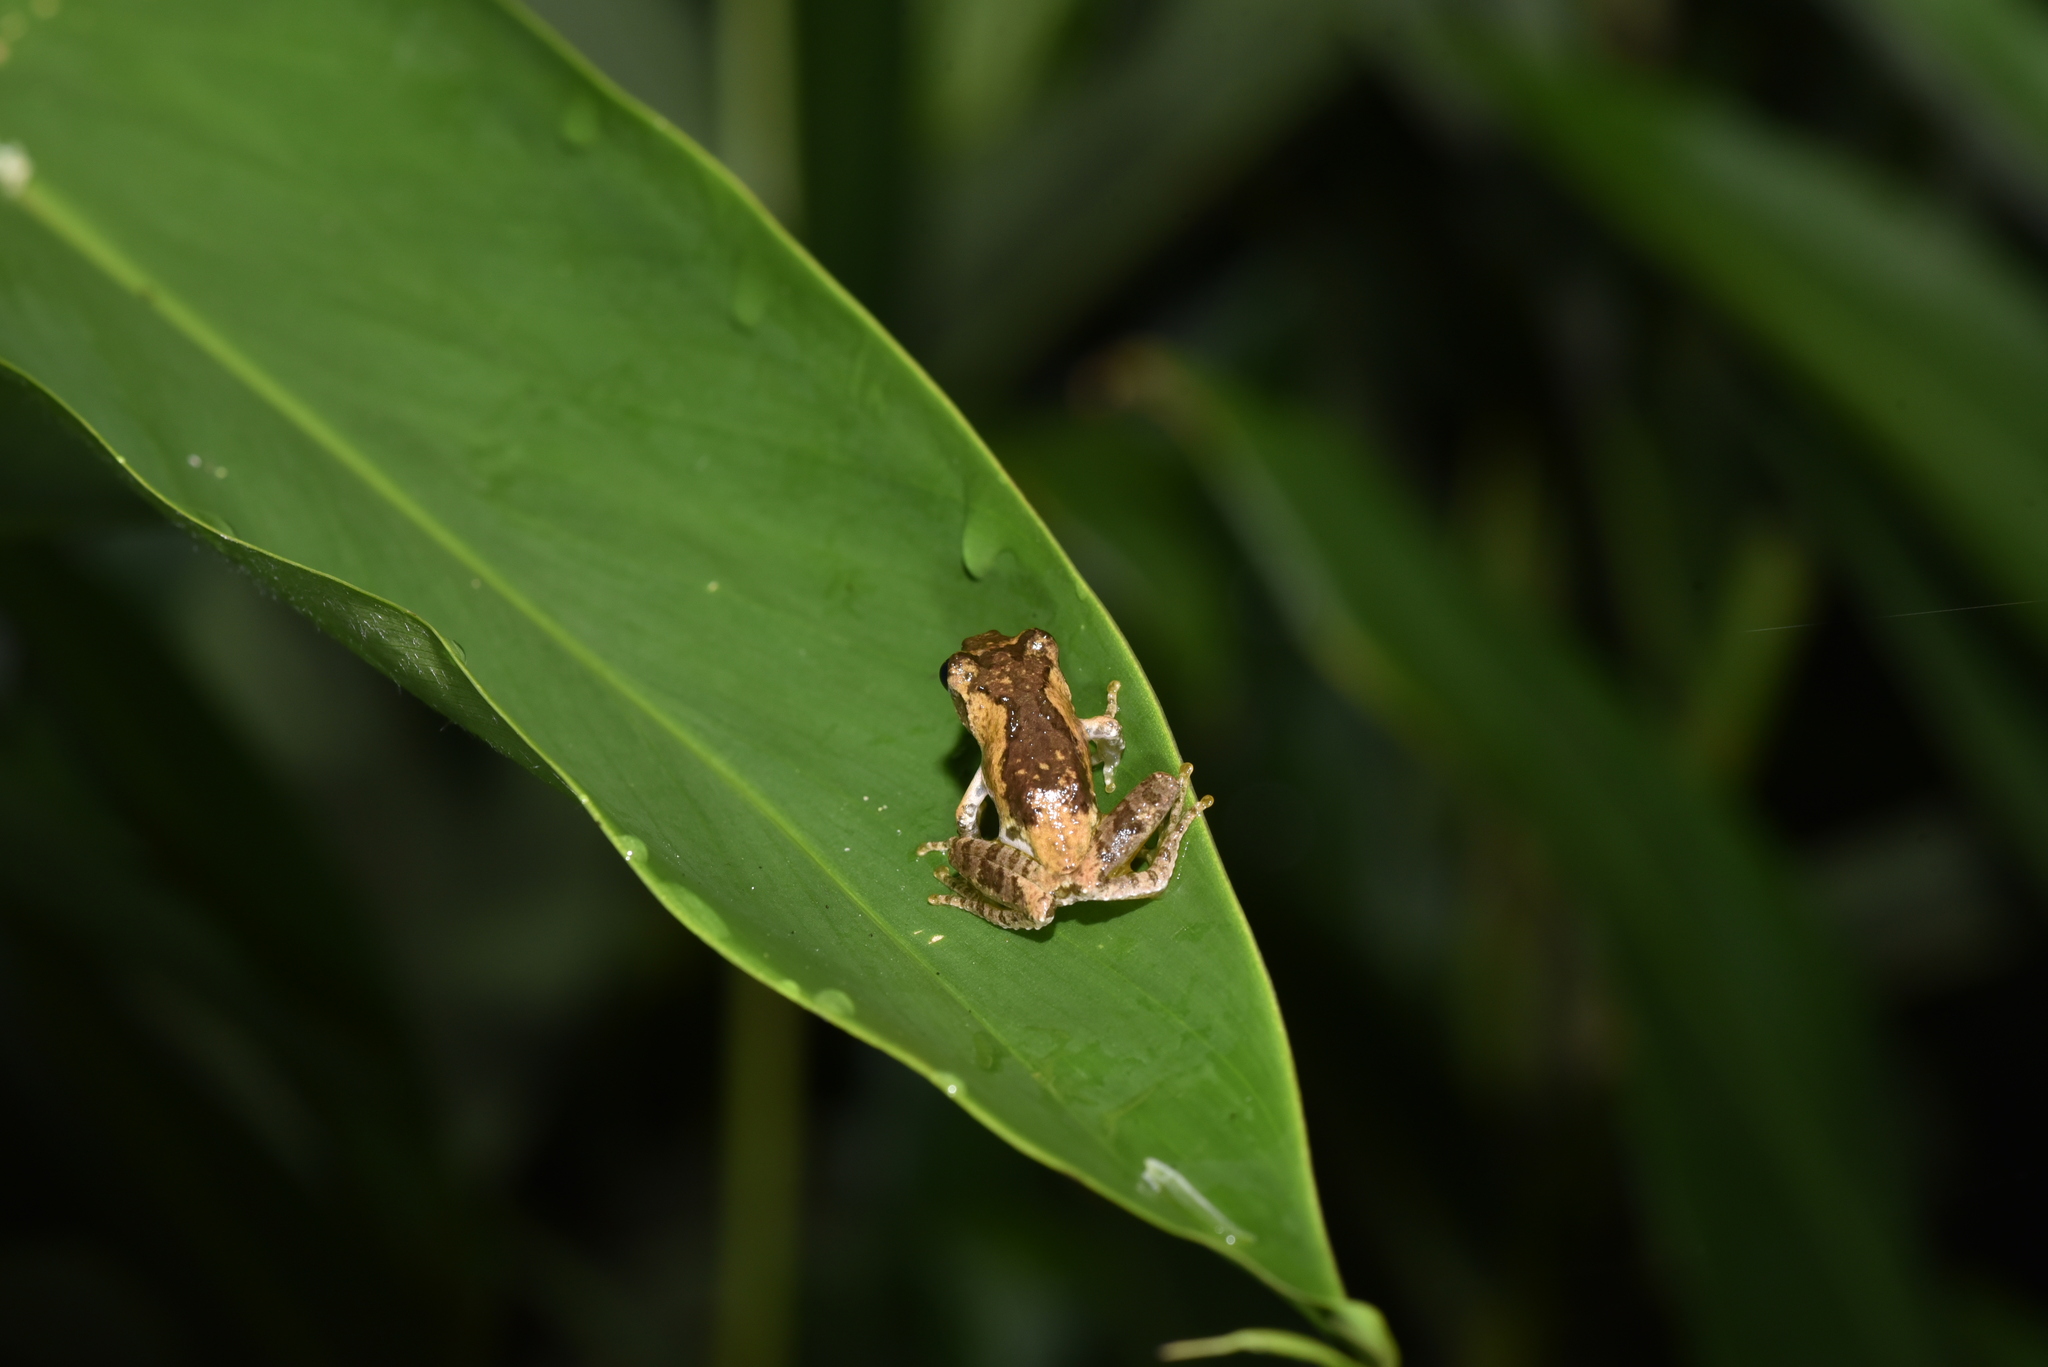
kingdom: Animalia
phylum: Chordata
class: Amphibia
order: Anura
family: Rhacophoridae
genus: Kurixalus
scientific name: Kurixalus idiootocus
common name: Temple treefrog
